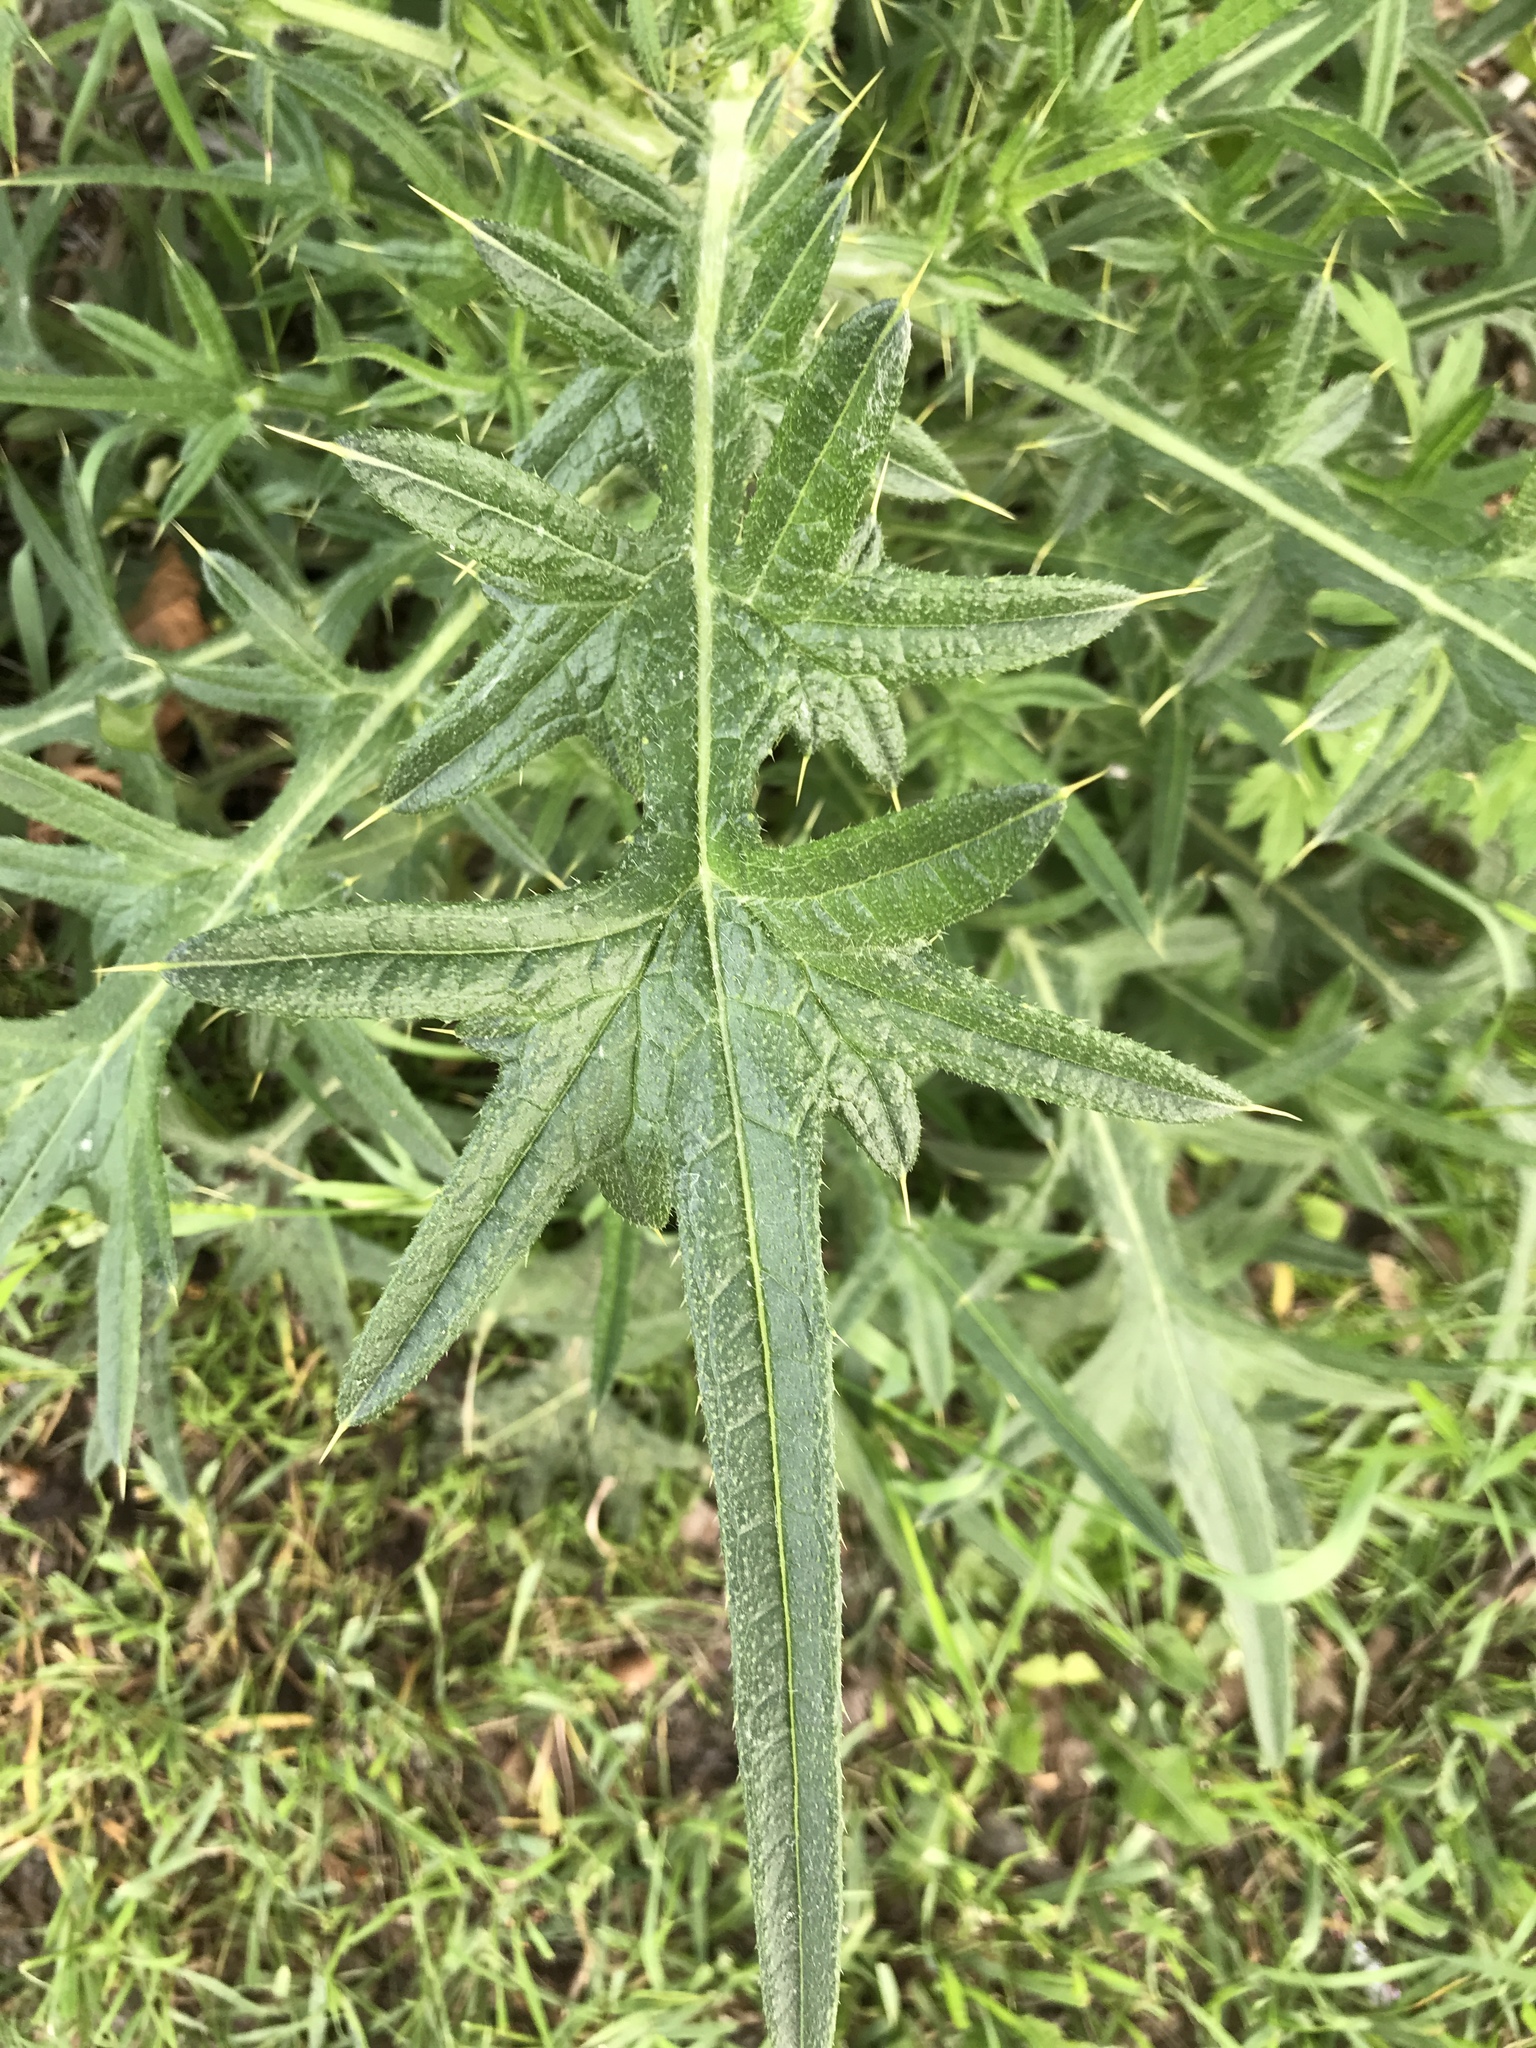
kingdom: Plantae
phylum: Tracheophyta
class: Magnoliopsida
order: Asterales
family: Asteraceae
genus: Cirsium
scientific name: Cirsium vulgare
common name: Bull thistle
